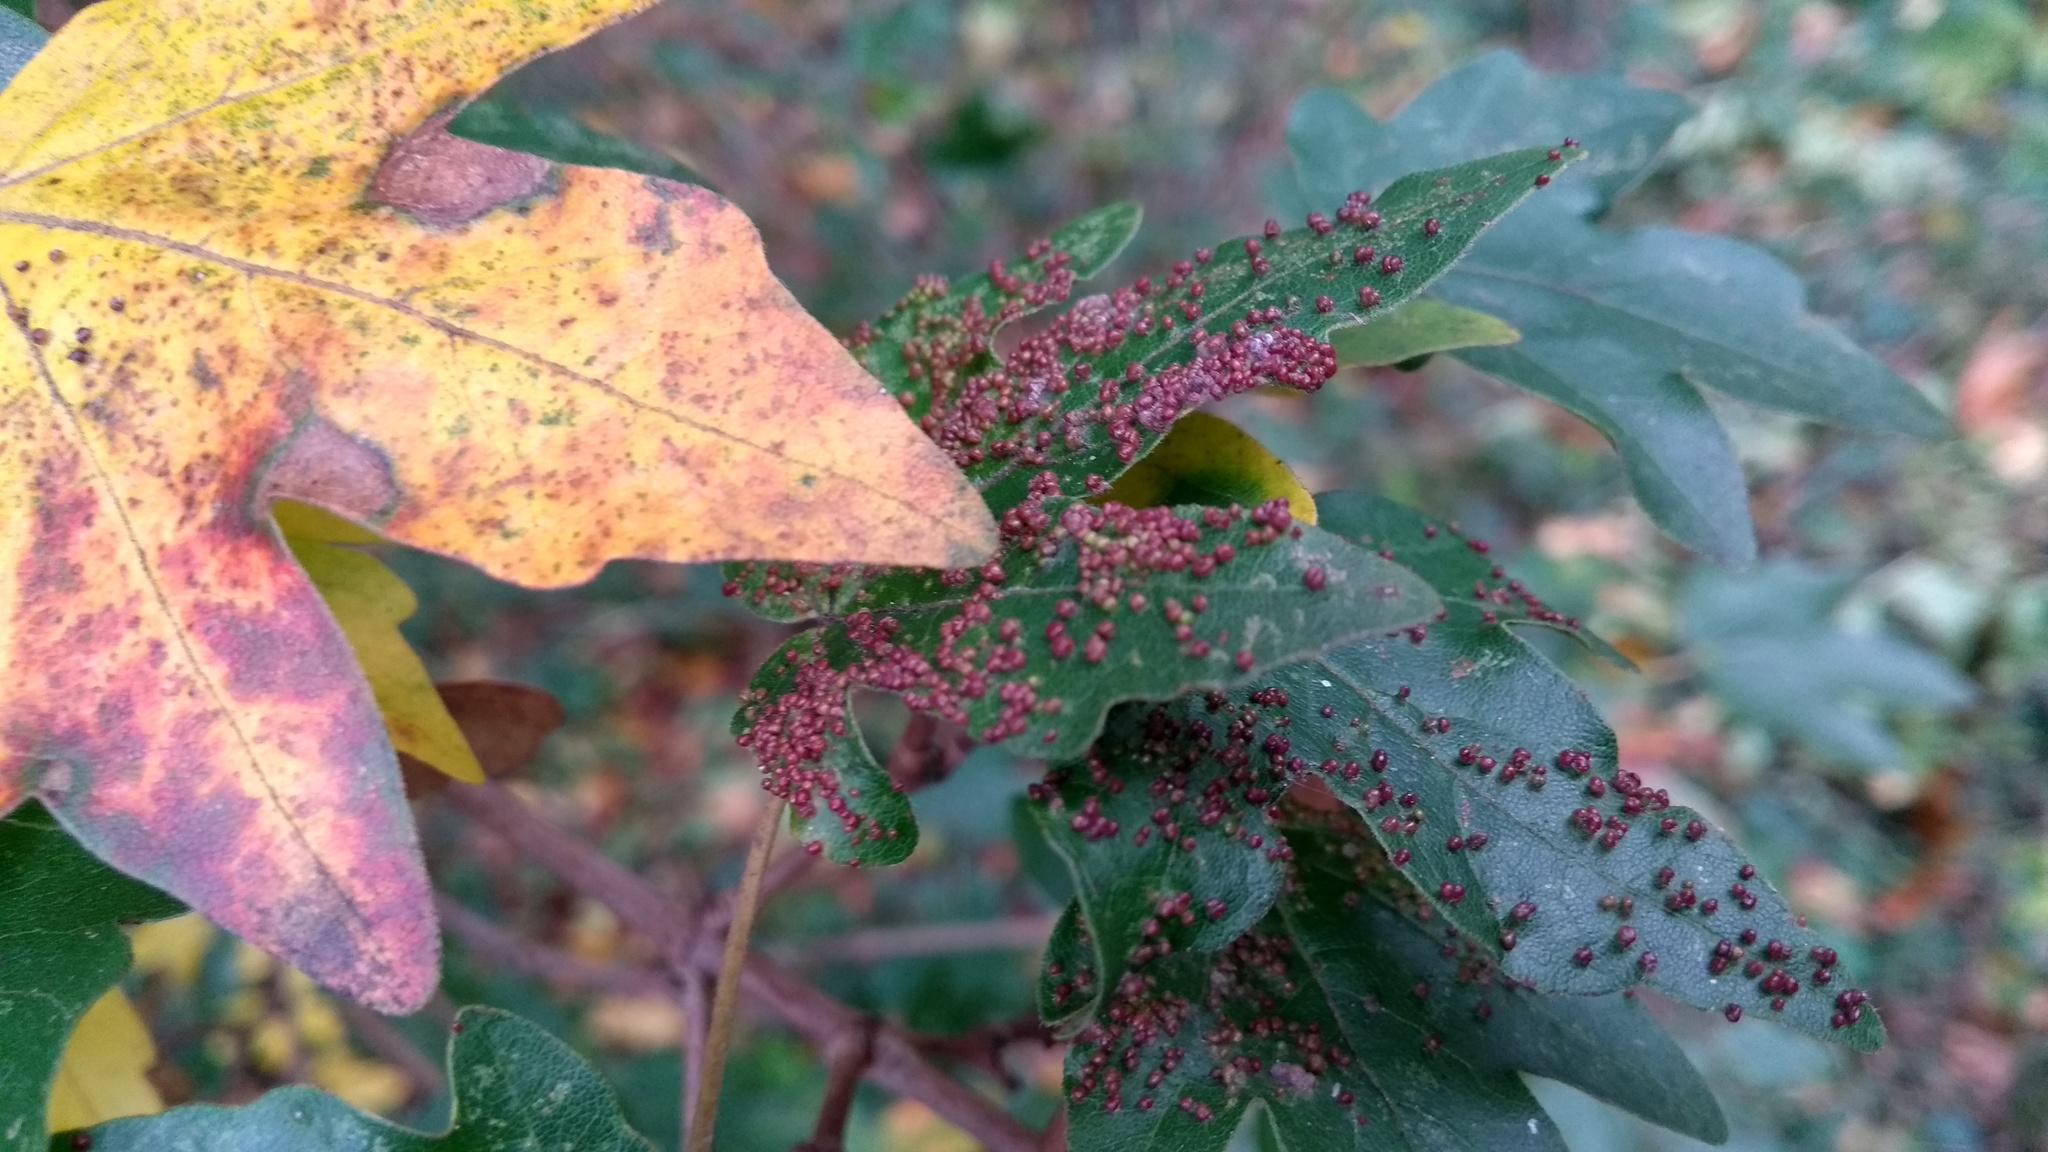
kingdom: Animalia
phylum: Arthropoda
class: Arachnida
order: Trombidiformes
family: Eriophyidae
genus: Aceria
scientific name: Aceria myriadeum
